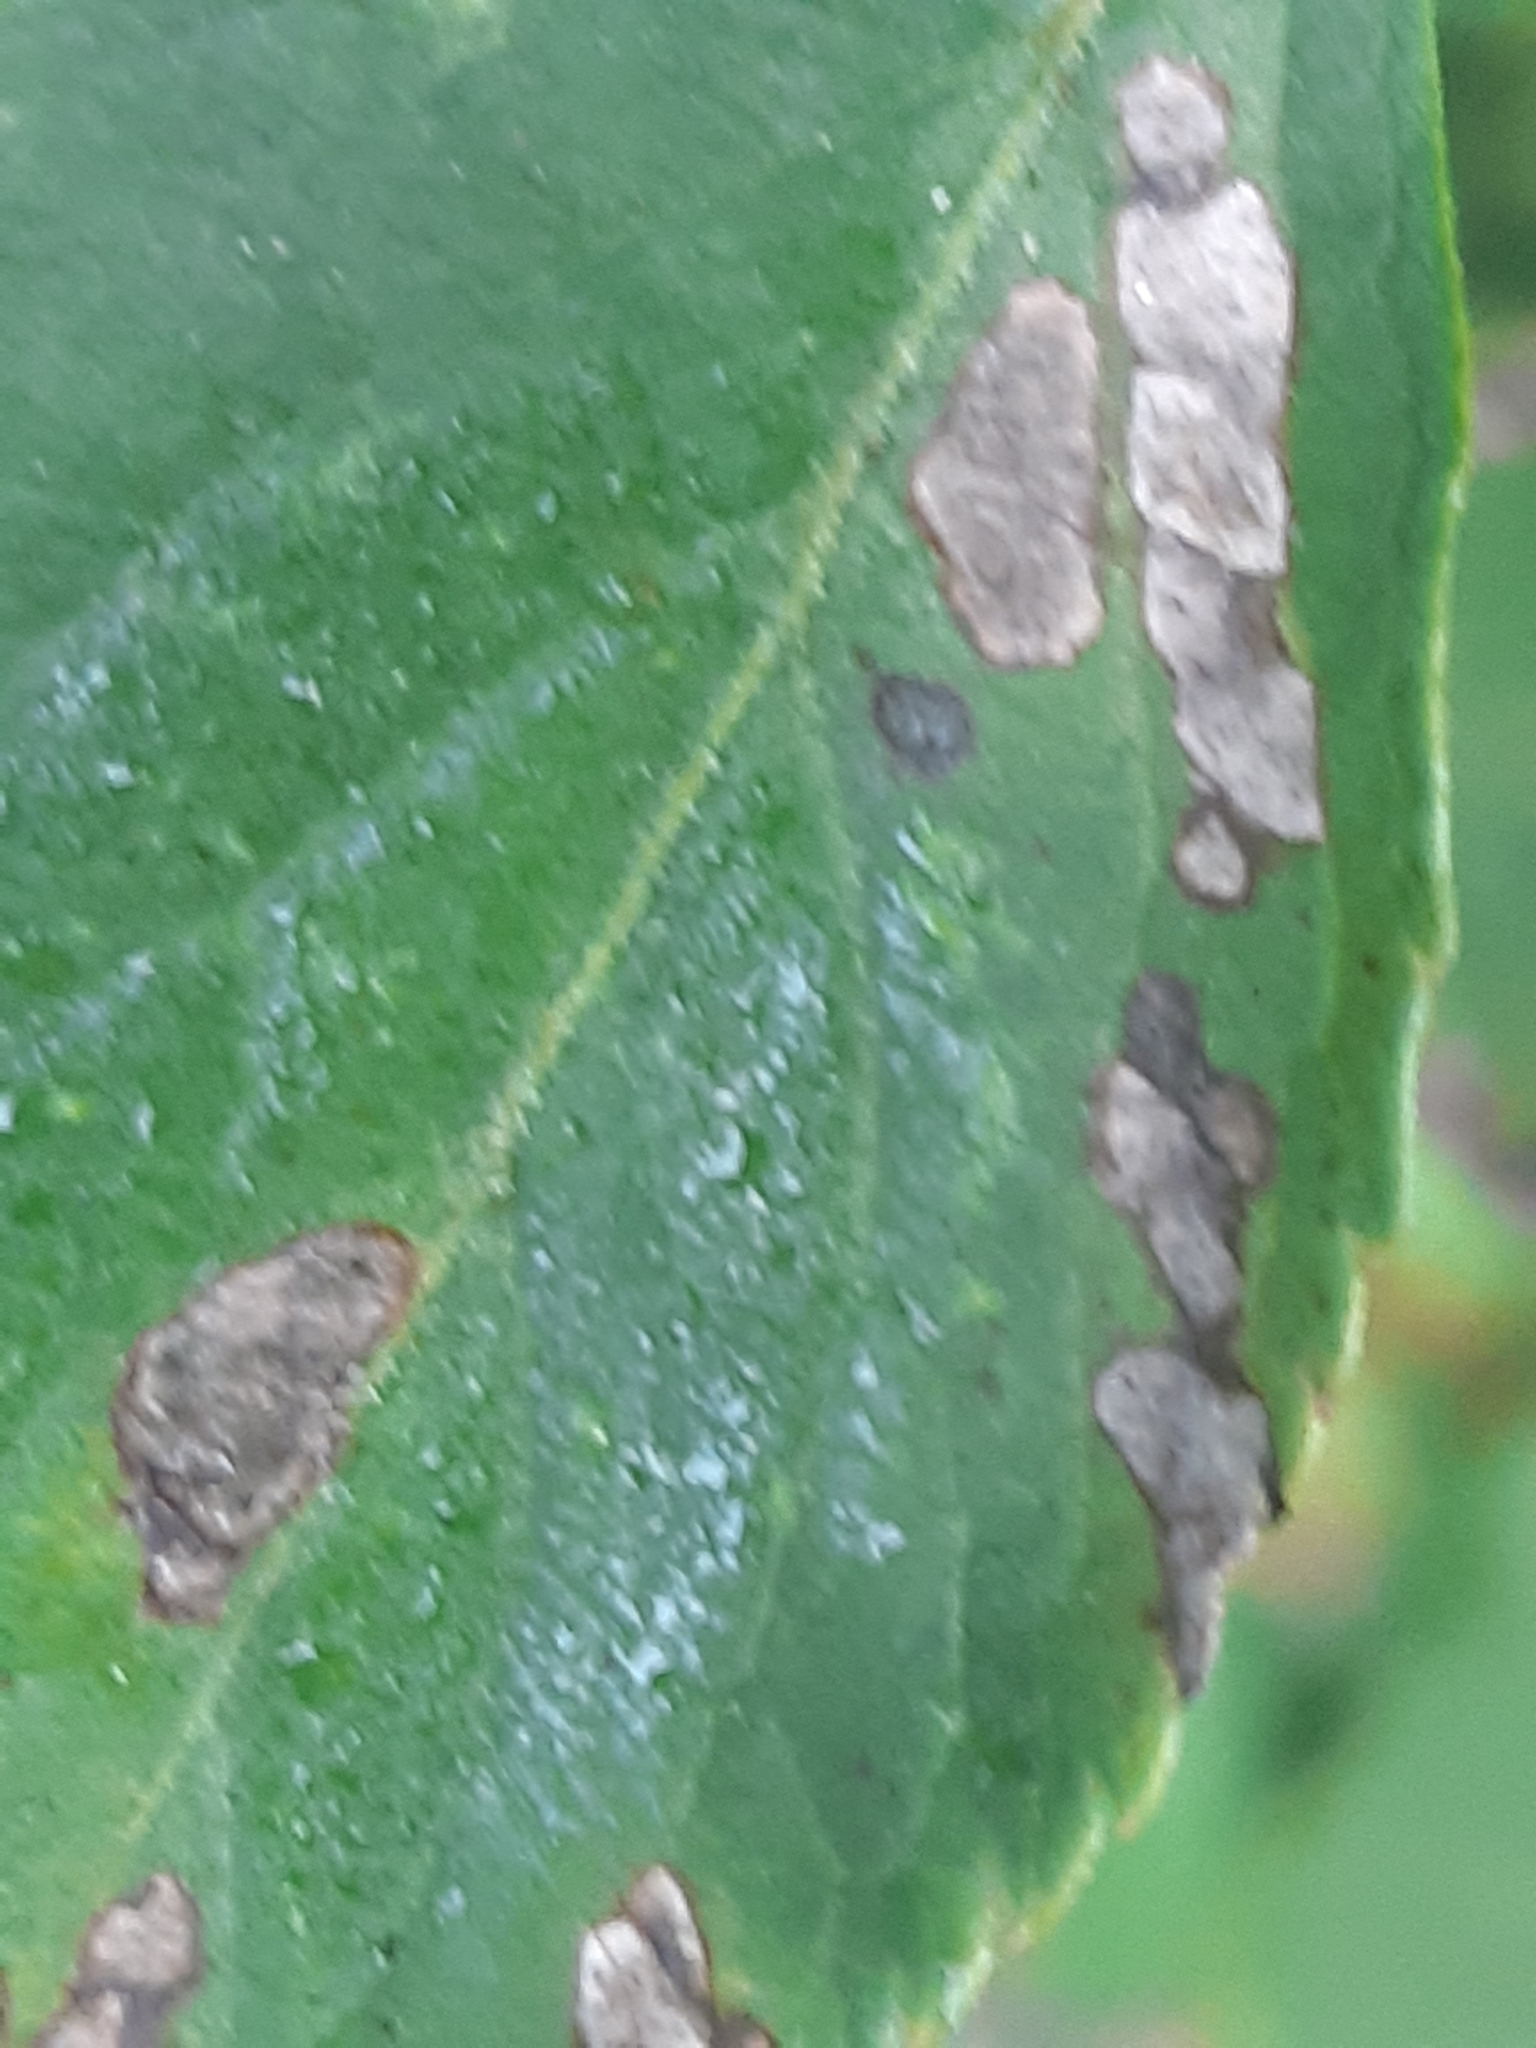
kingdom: Fungi
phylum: Ascomycota
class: Dothideomycetes
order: Mycosphaerellales
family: Mycosphaerellaceae
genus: Pseudocercospora
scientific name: Pseudocercospora depazeoides
